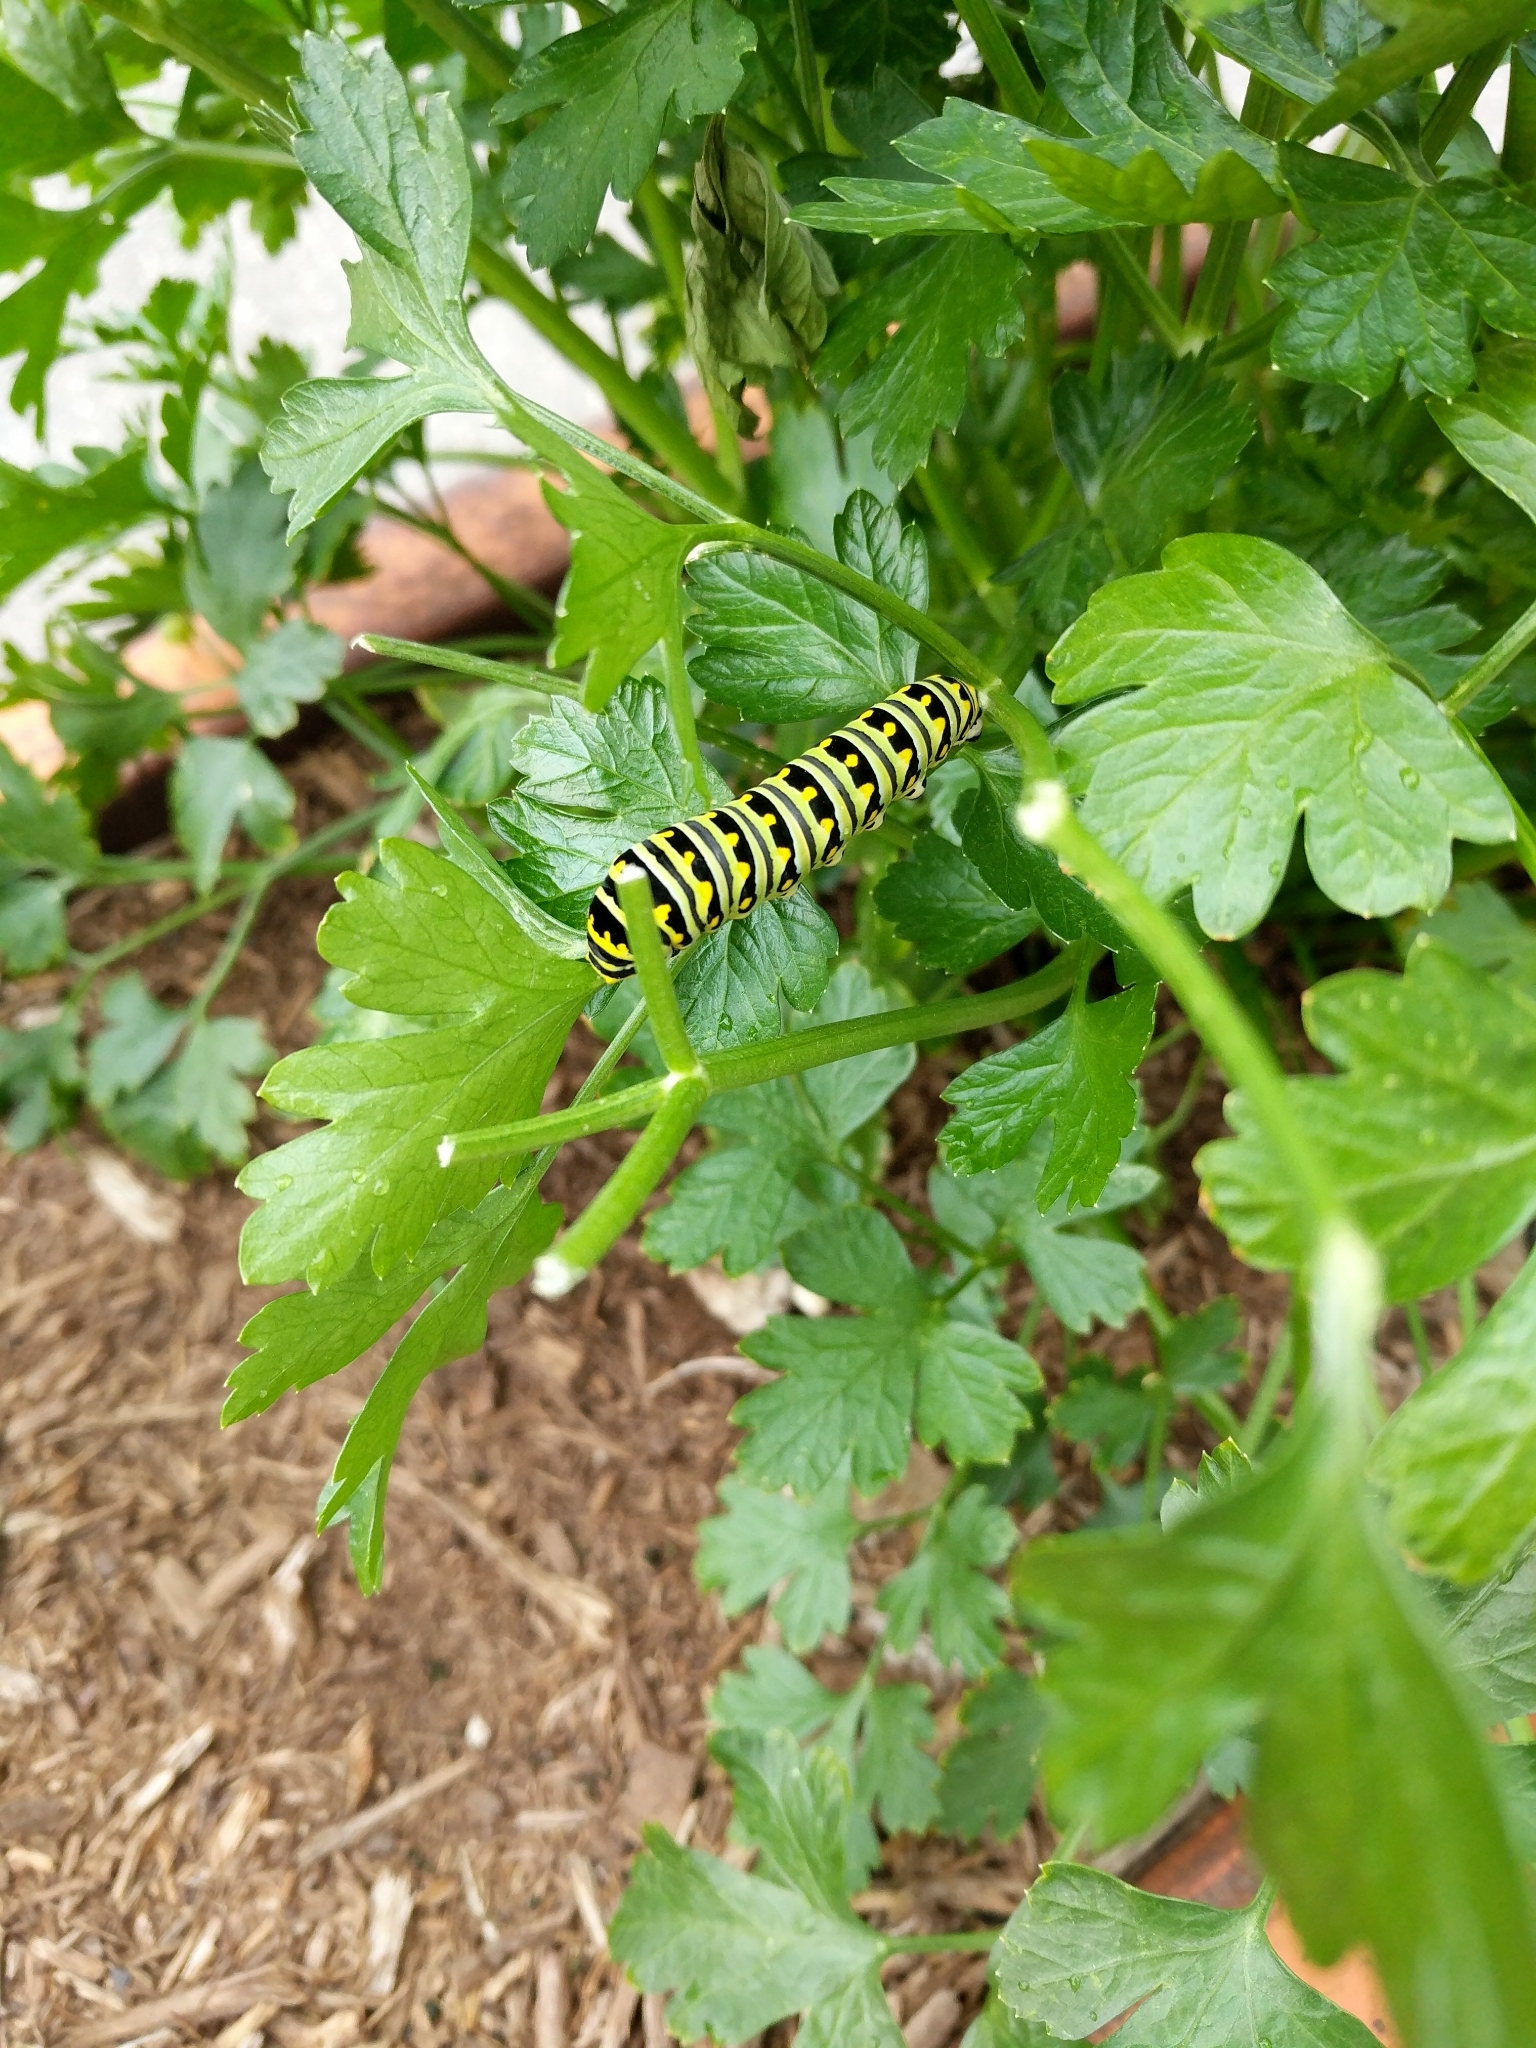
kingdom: Animalia
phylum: Arthropoda
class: Insecta
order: Lepidoptera
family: Papilionidae
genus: Papilio
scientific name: Papilio polyxenes
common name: Black swallowtail
